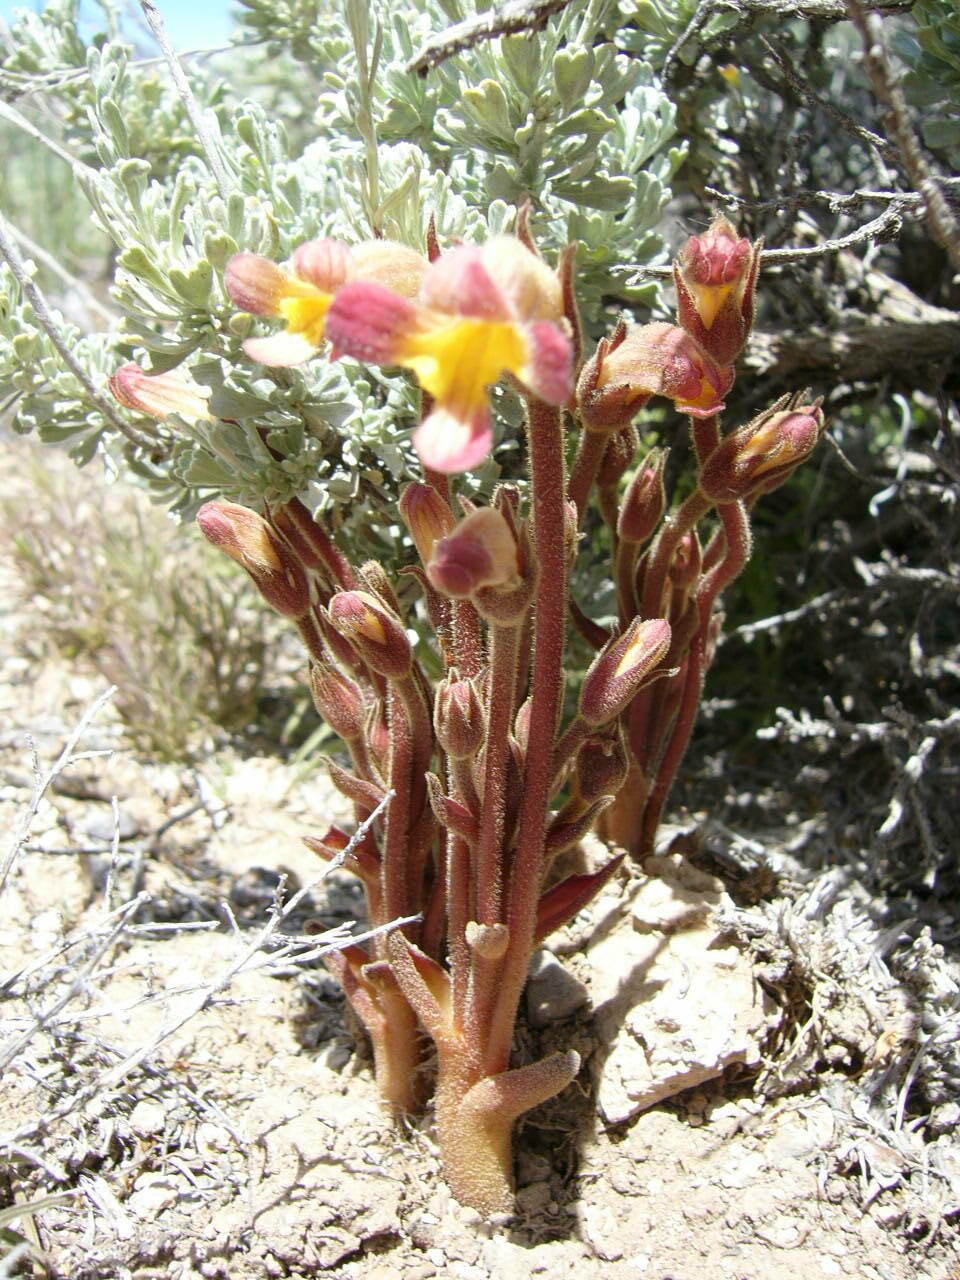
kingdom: Plantae
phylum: Tracheophyta
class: Magnoliopsida
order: Lamiales
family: Orobanchaceae
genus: Aphyllon
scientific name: Aphyllon fasciculatum
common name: Clustered broomrape
